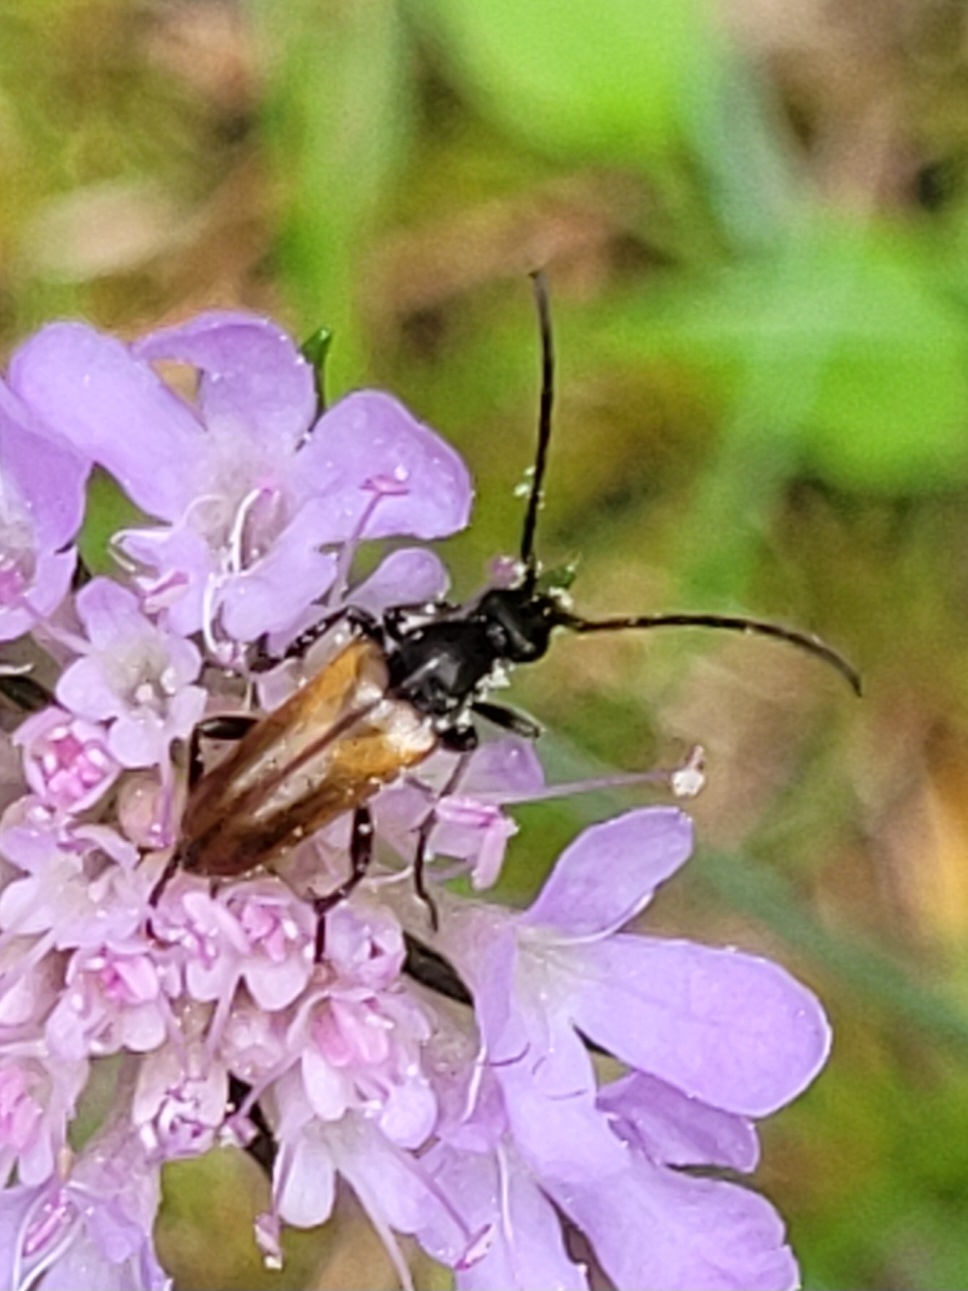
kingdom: Animalia
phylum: Arthropoda
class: Insecta
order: Coleoptera
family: Cerambycidae
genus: Pseudovadonia
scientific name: Pseudovadonia livida
